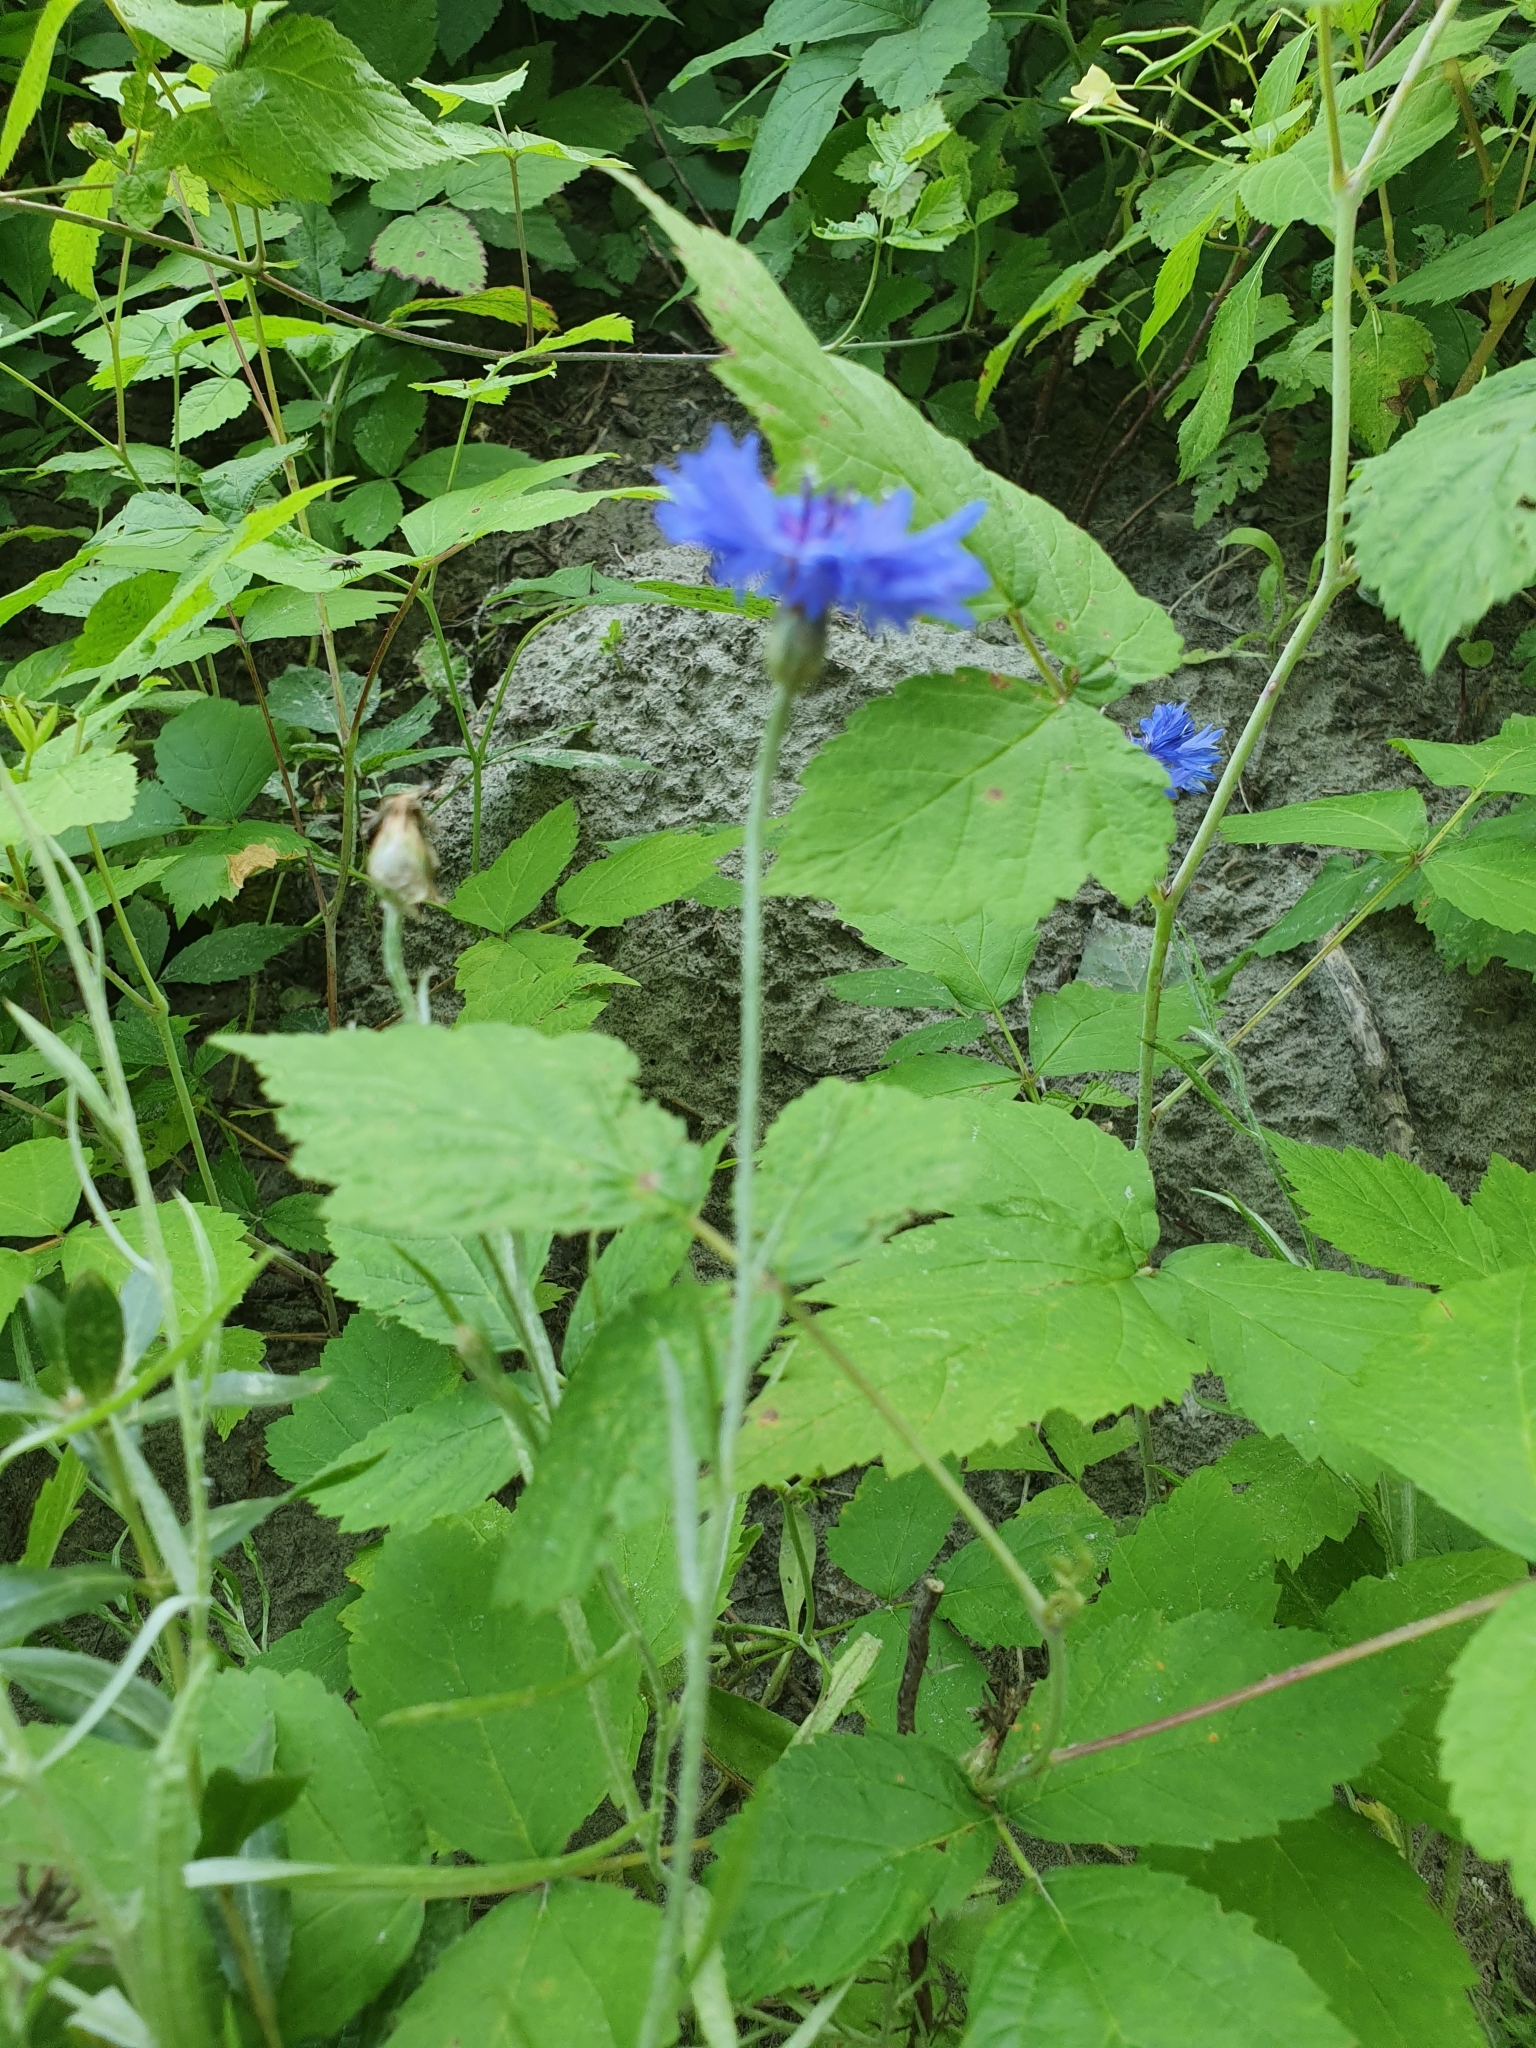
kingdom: Plantae
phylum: Tracheophyta
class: Magnoliopsida
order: Asterales
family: Asteraceae
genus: Centaurea
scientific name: Centaurea cyanus
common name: Cornflower
